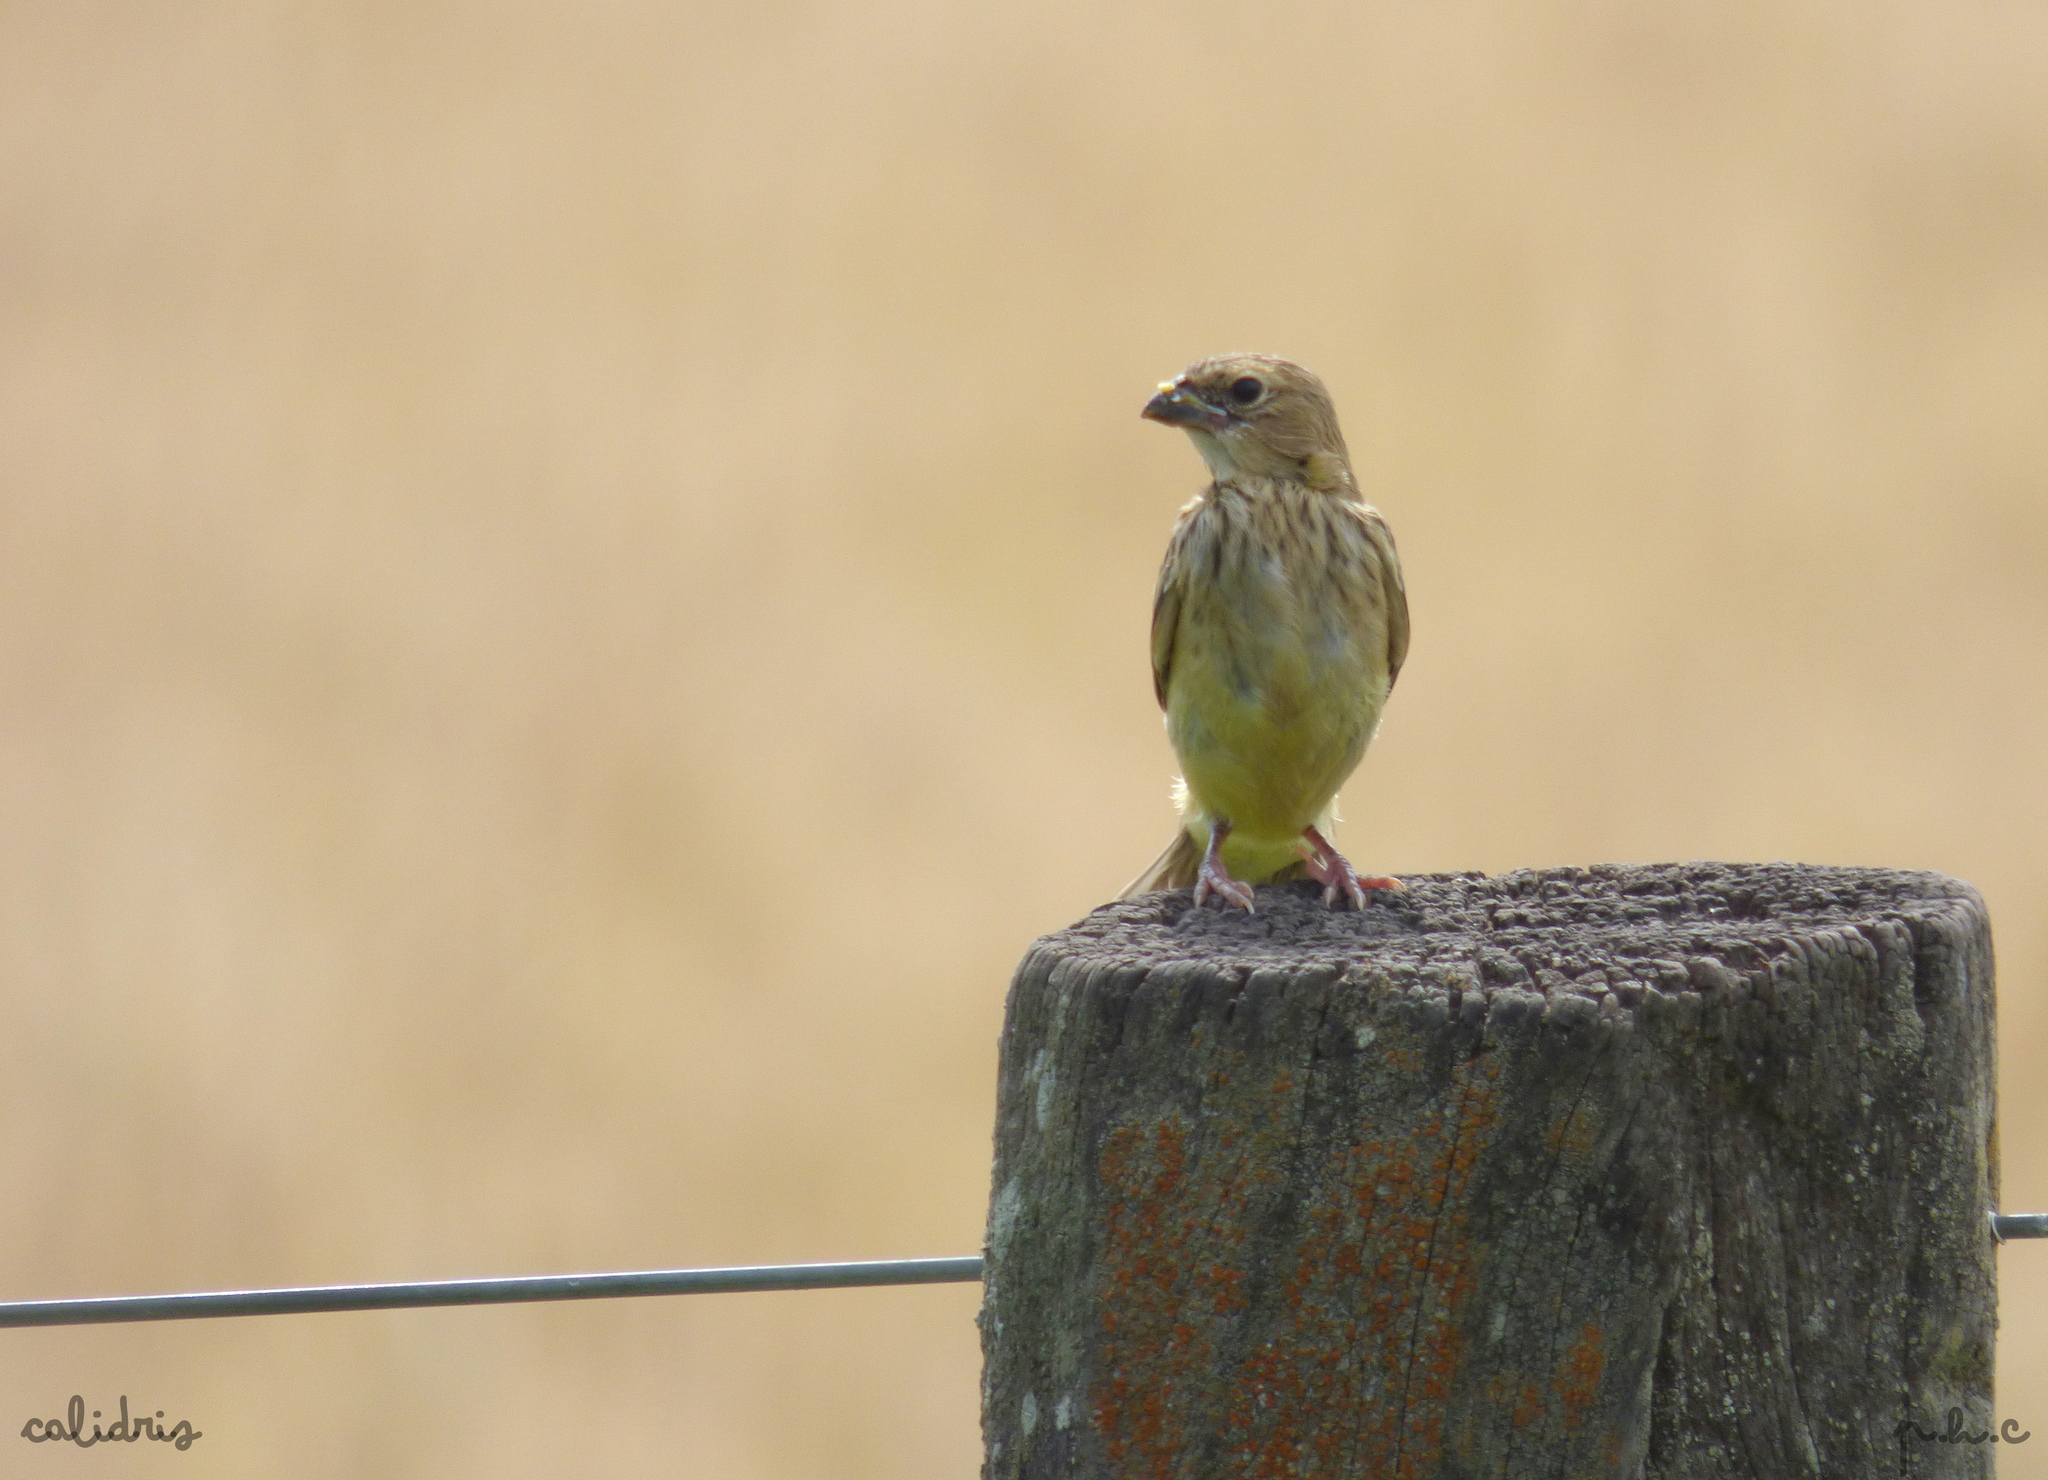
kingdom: Animalia
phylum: Chordata
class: Aves
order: Passeriformes
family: Thraupidae
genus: Sicalis
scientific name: Sicalis luteola
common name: Grassland yellow-finch
